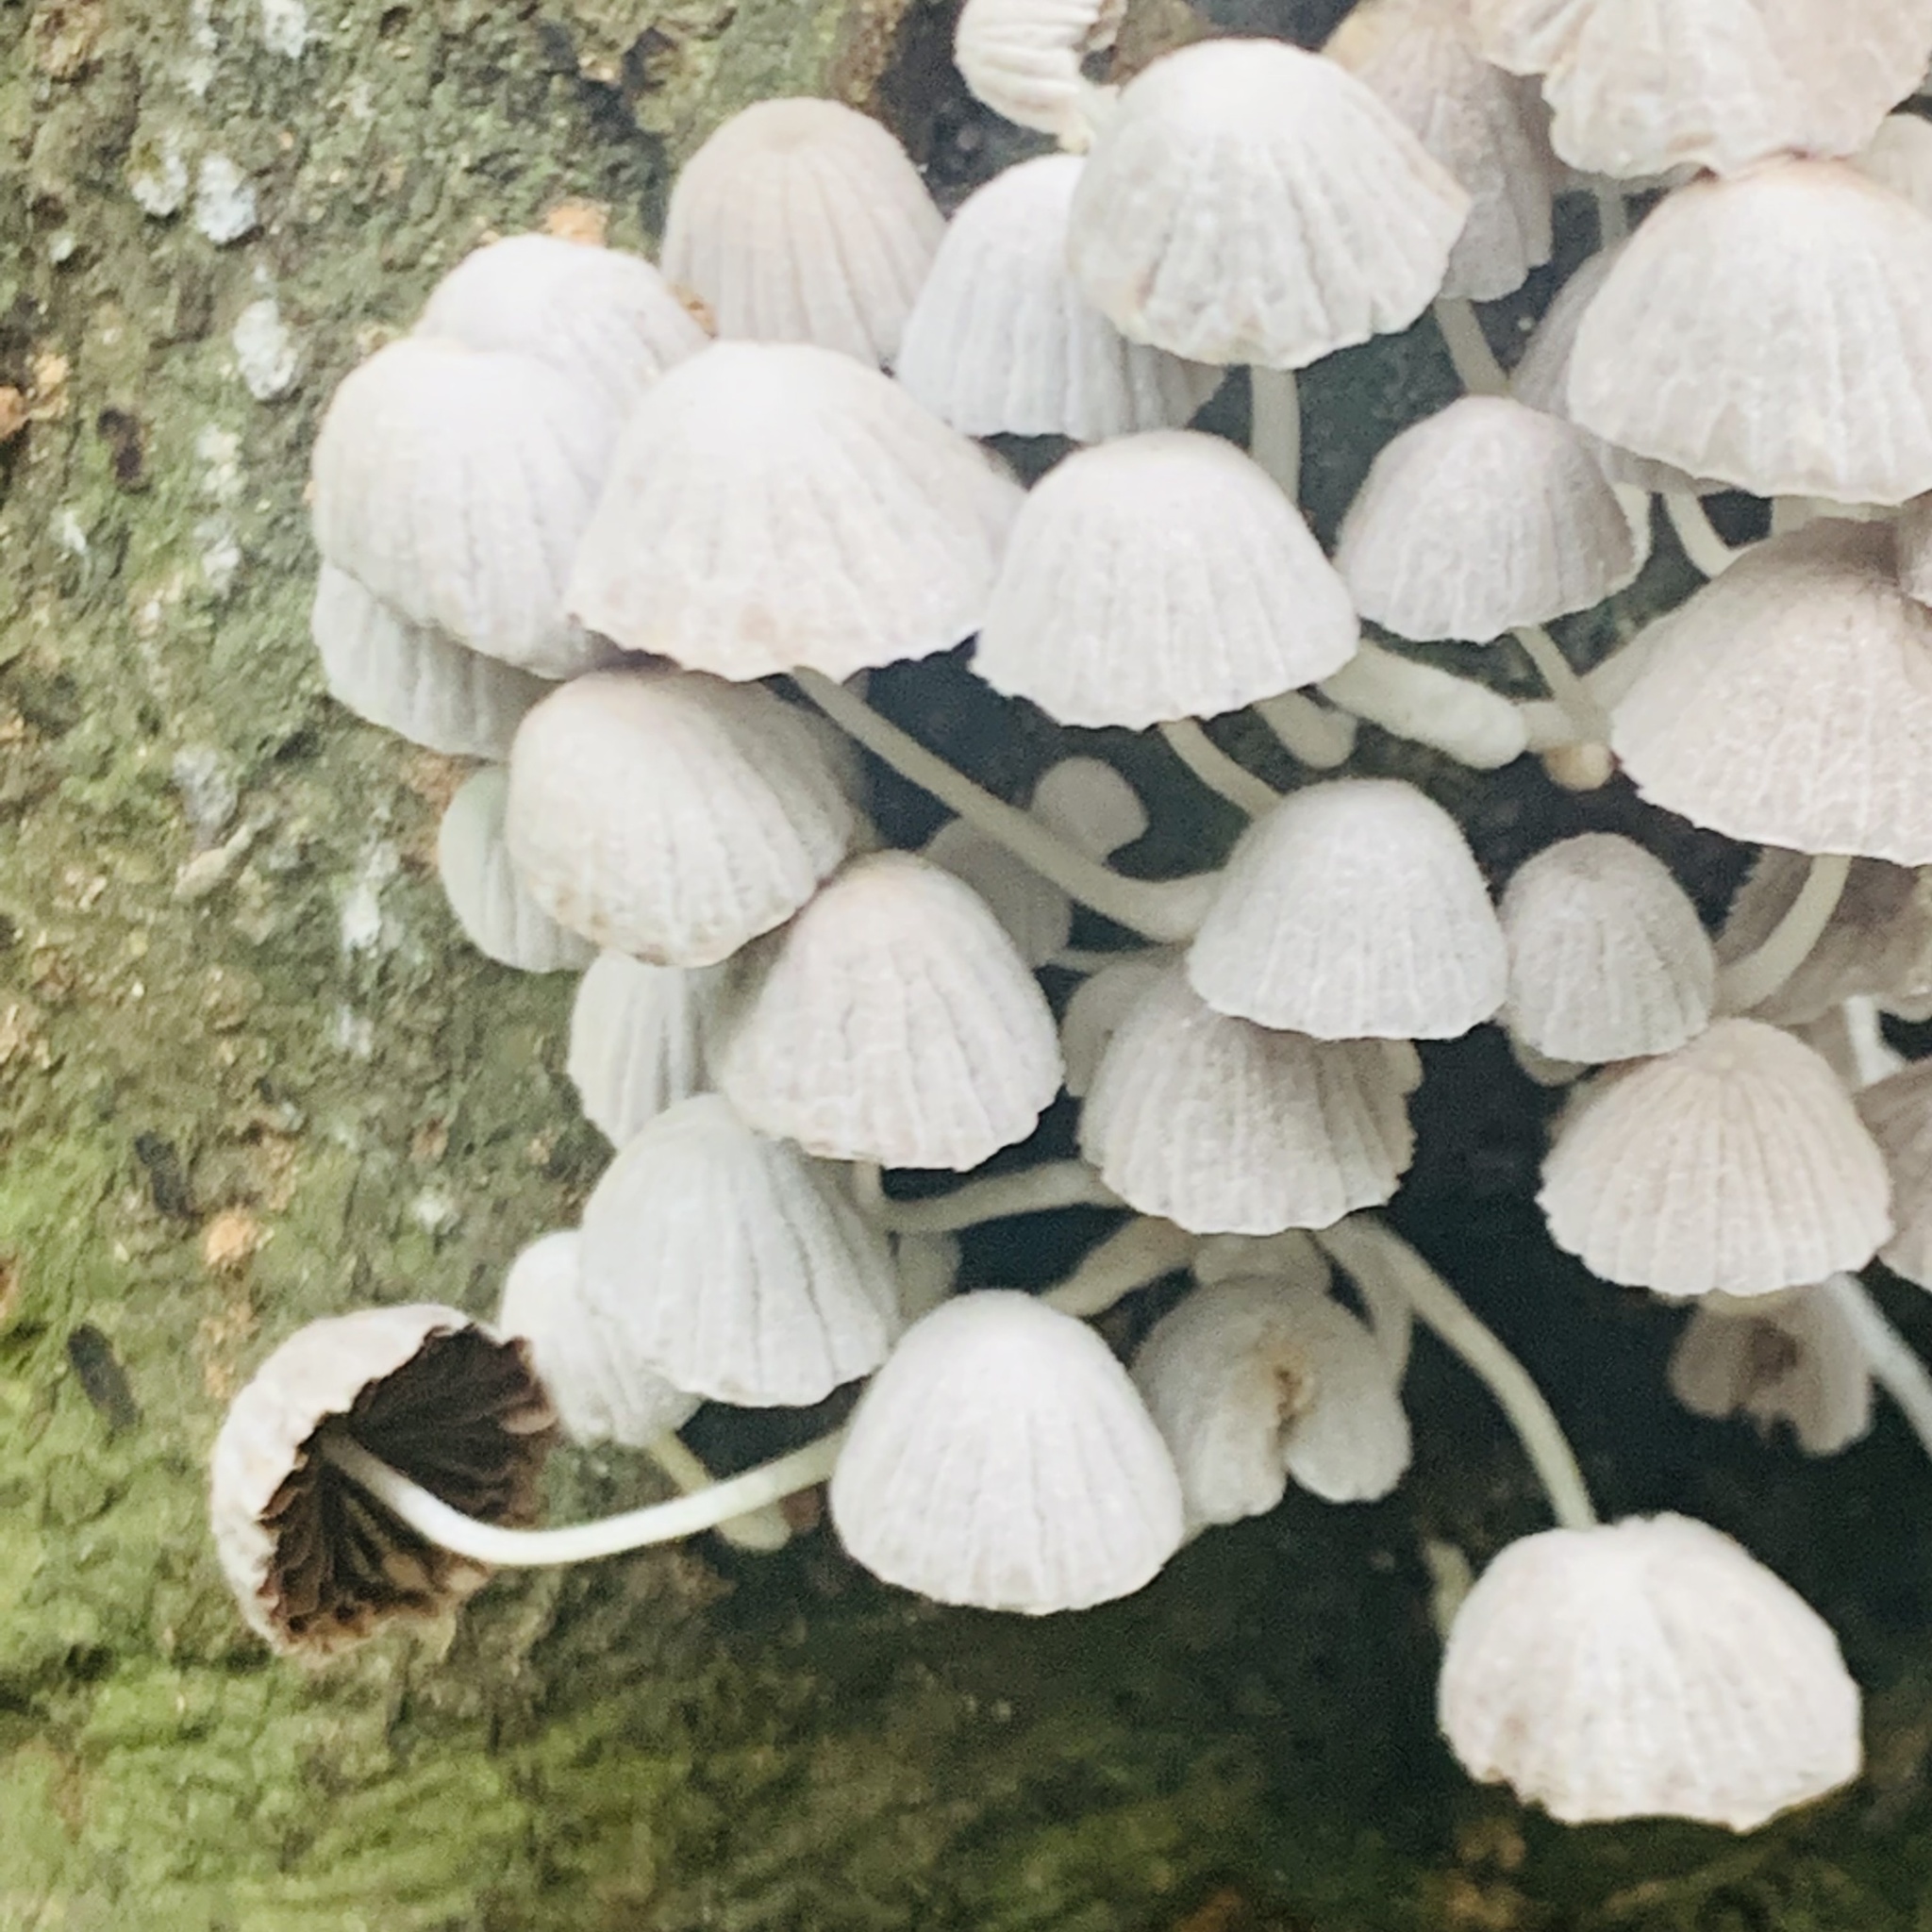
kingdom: Fungi
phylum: Basidiomycota
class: Agaricomycetes
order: Agaricales
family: Psathyrellaceae
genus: Coprinellus
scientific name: Coprinellus disseminatus
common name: Fairies' bonnets
